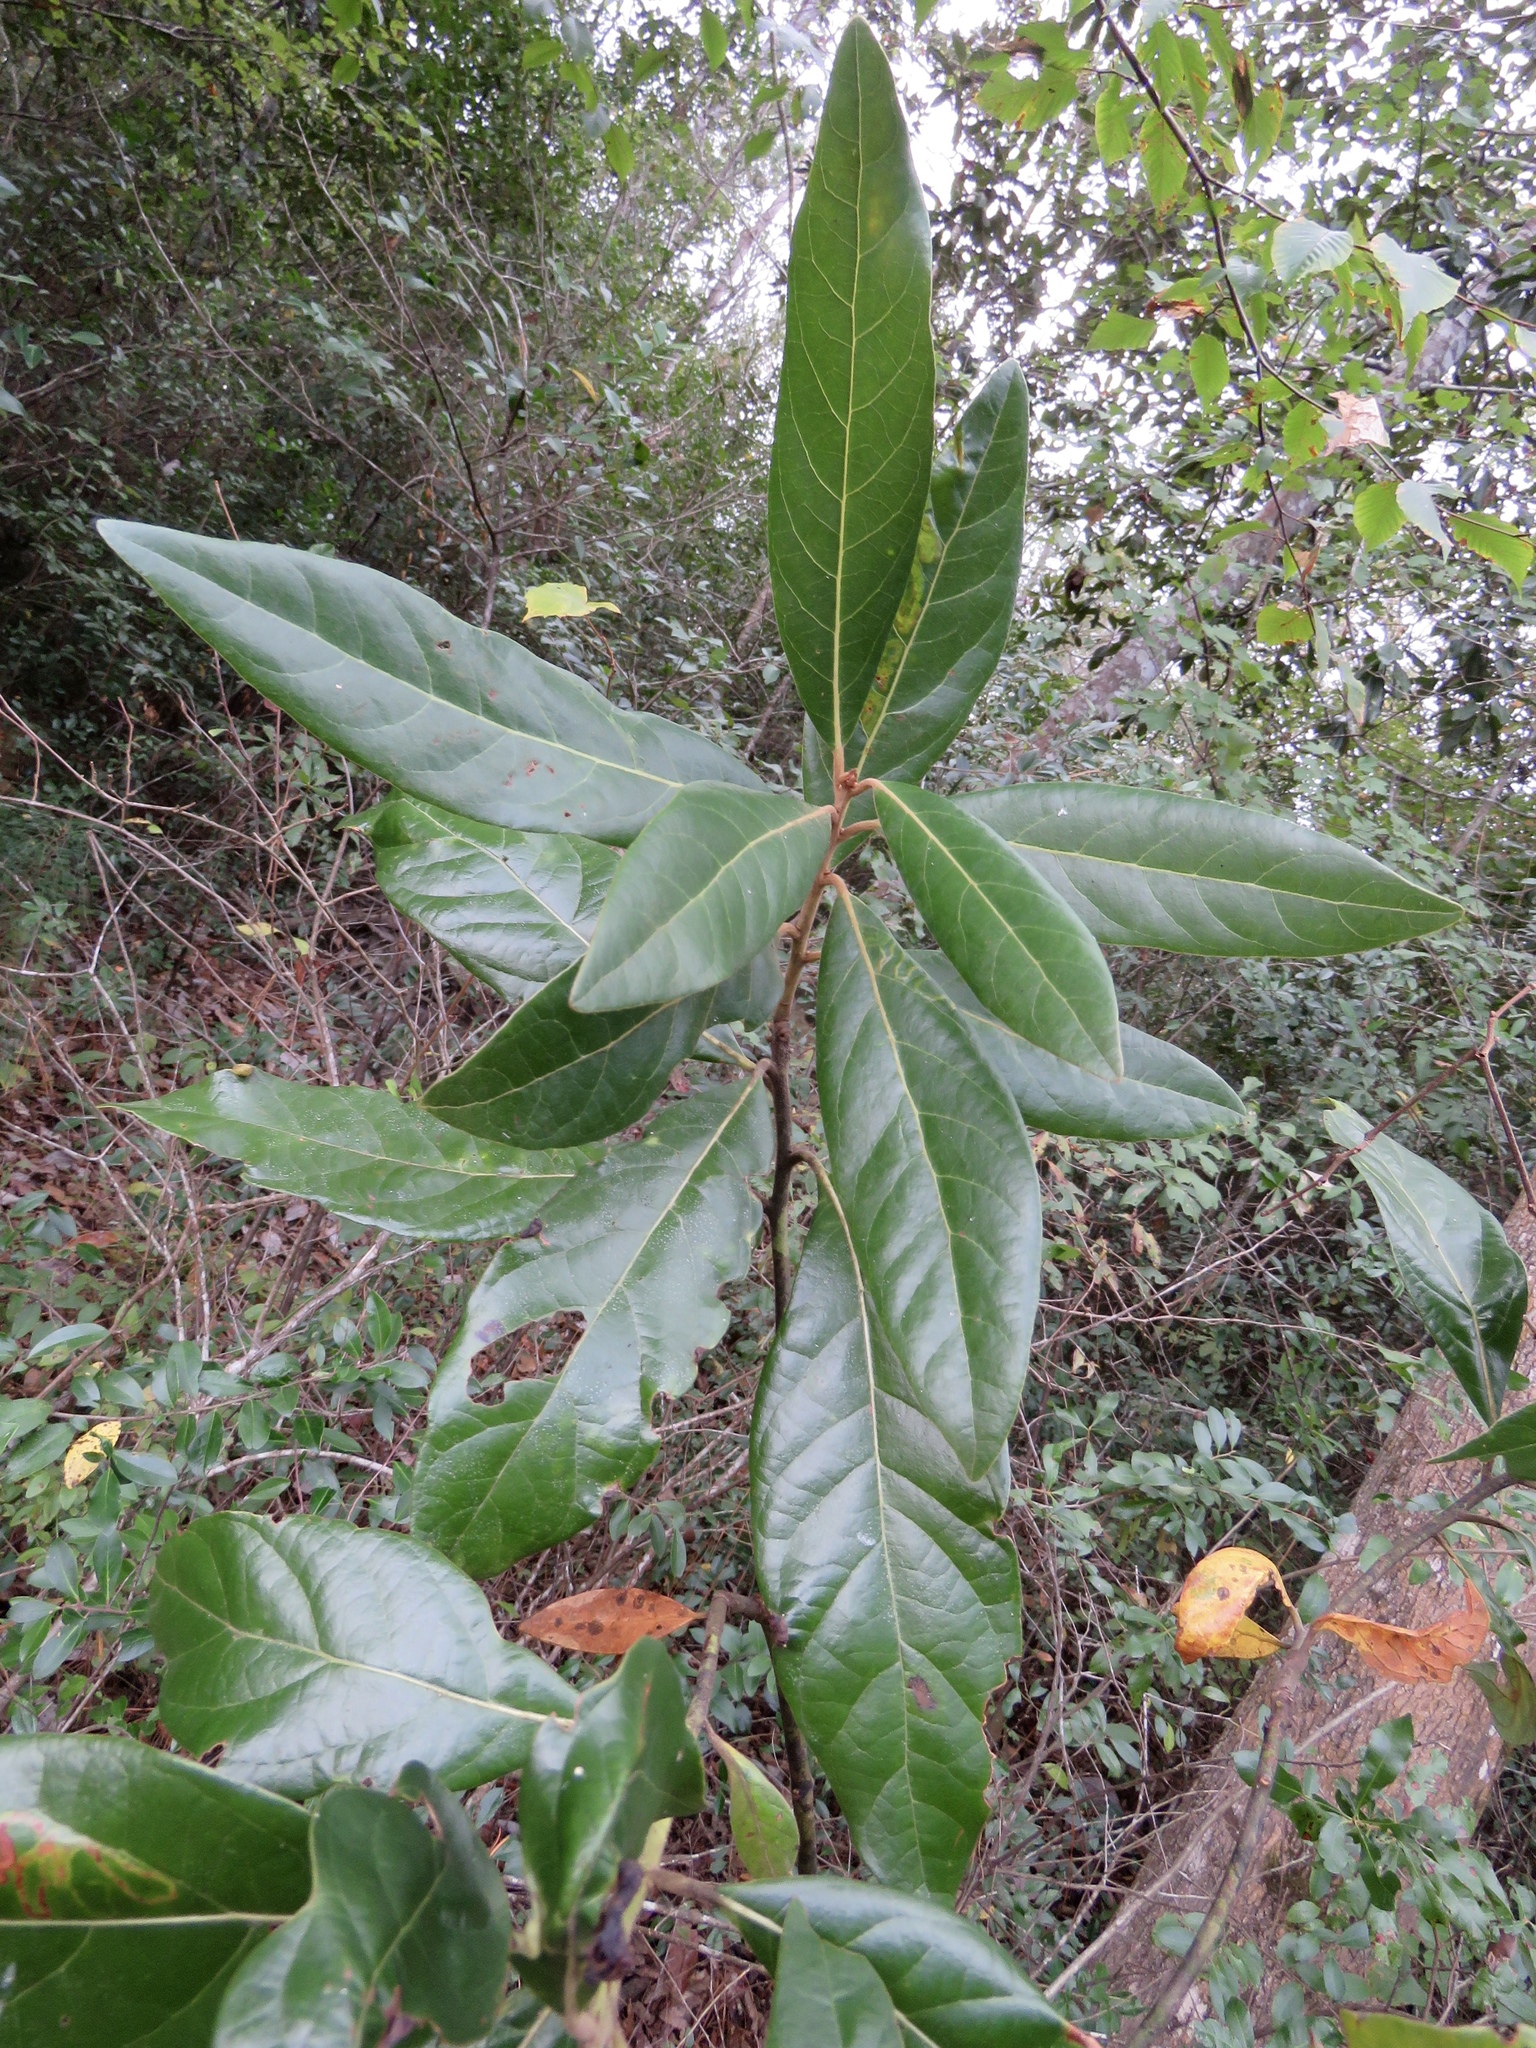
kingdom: Plantae
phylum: Tracheophyta
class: Magnoliopsida
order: Laurales
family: Lauraceae
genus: Persea
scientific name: Persea palustris
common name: Swampbay
